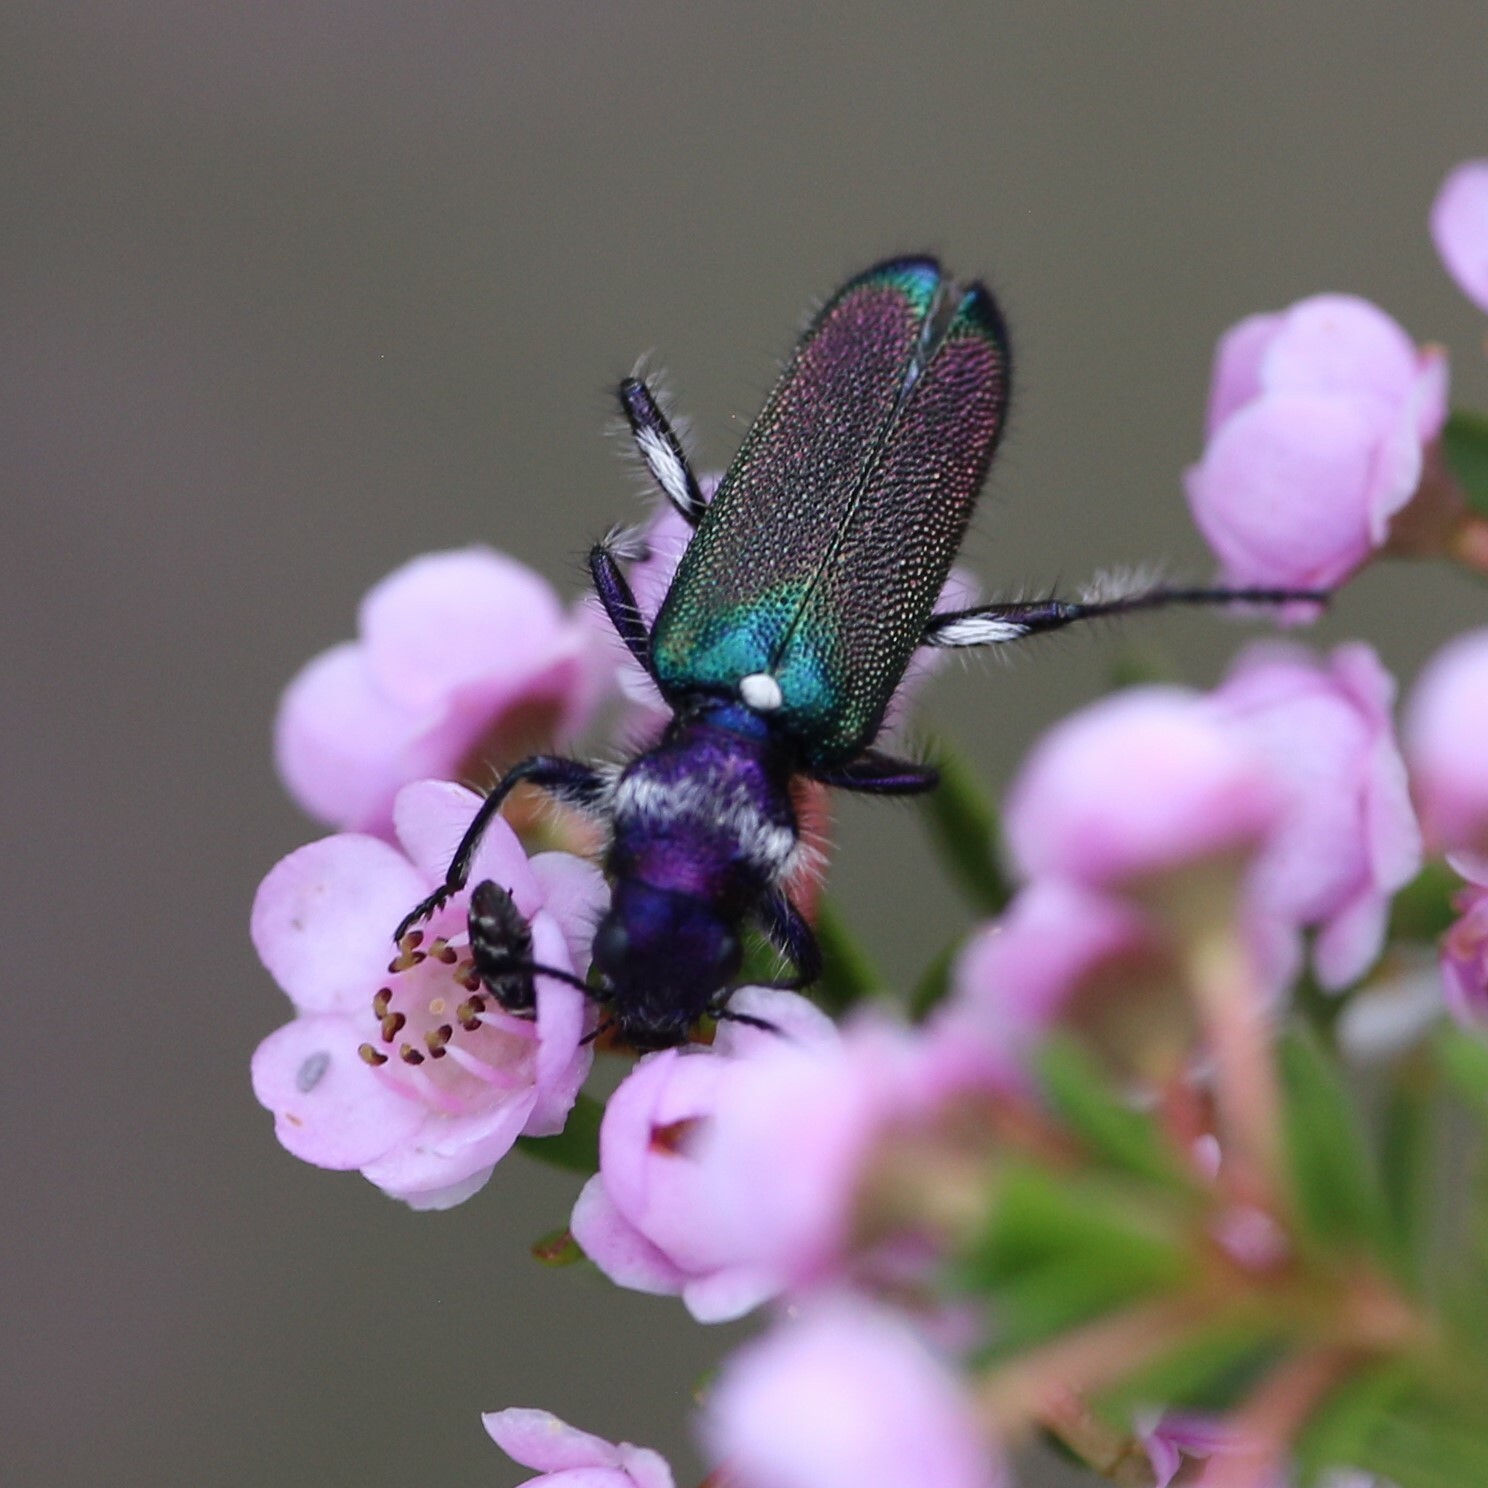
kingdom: Animalia
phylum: Arthropoda
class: Insecta
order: Coleoptera
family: Cleridae
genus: Eleale
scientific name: Eleale
